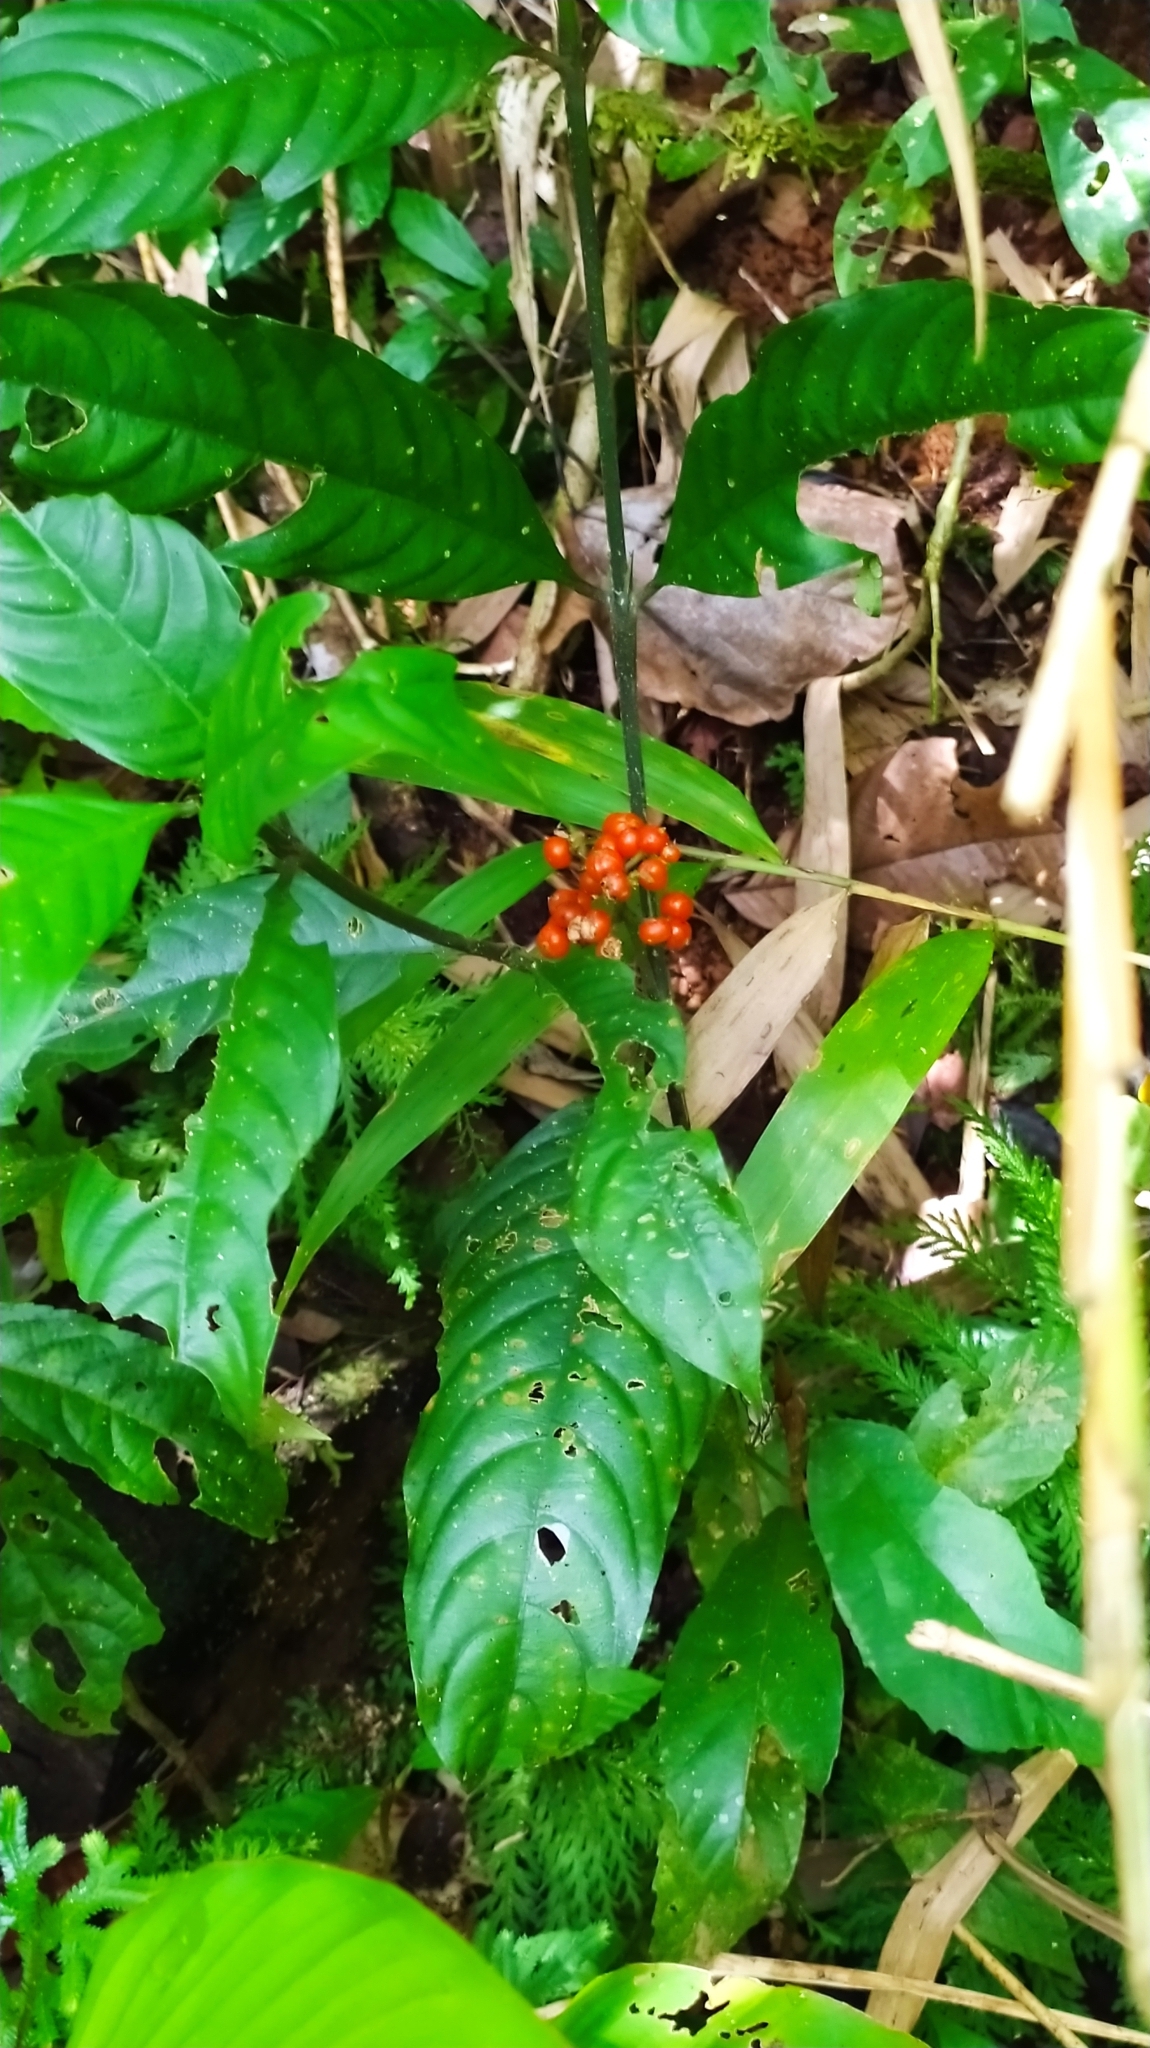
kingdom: Plantae
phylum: Tracheophyta
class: Magnoliopsida
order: Gentianales
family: Rubiaceae
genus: Palicourea
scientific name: Palicourea racemosa
